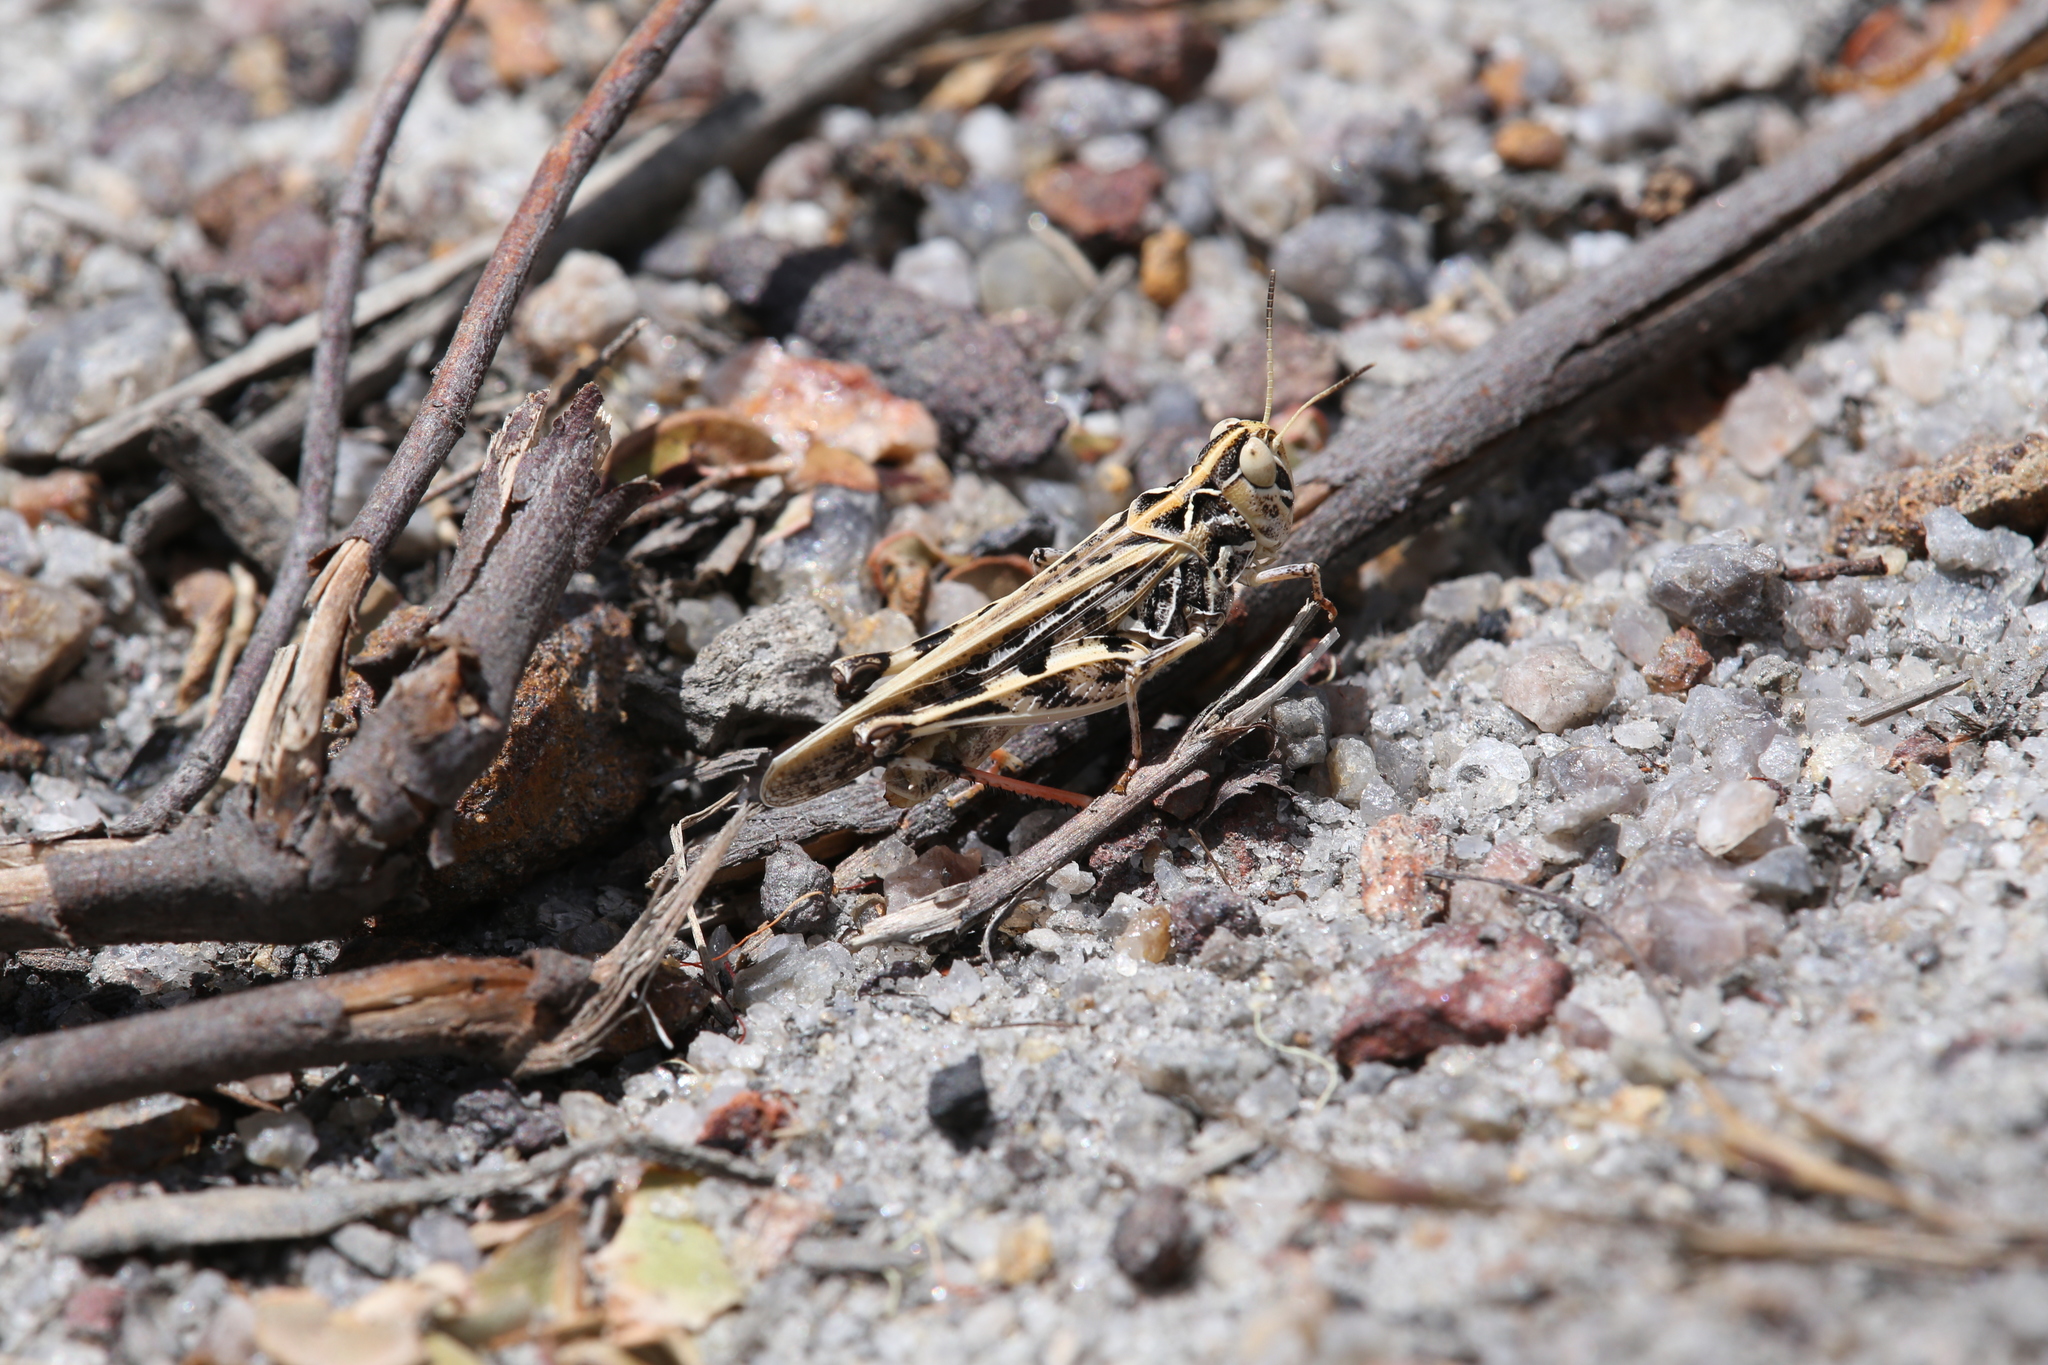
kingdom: Animalia
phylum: Arthropoda
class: Insecta
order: Orthoptera
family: Acrididae
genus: Austroicetes
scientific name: Austroicetes vulgaris
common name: Southeastern austroicetes
